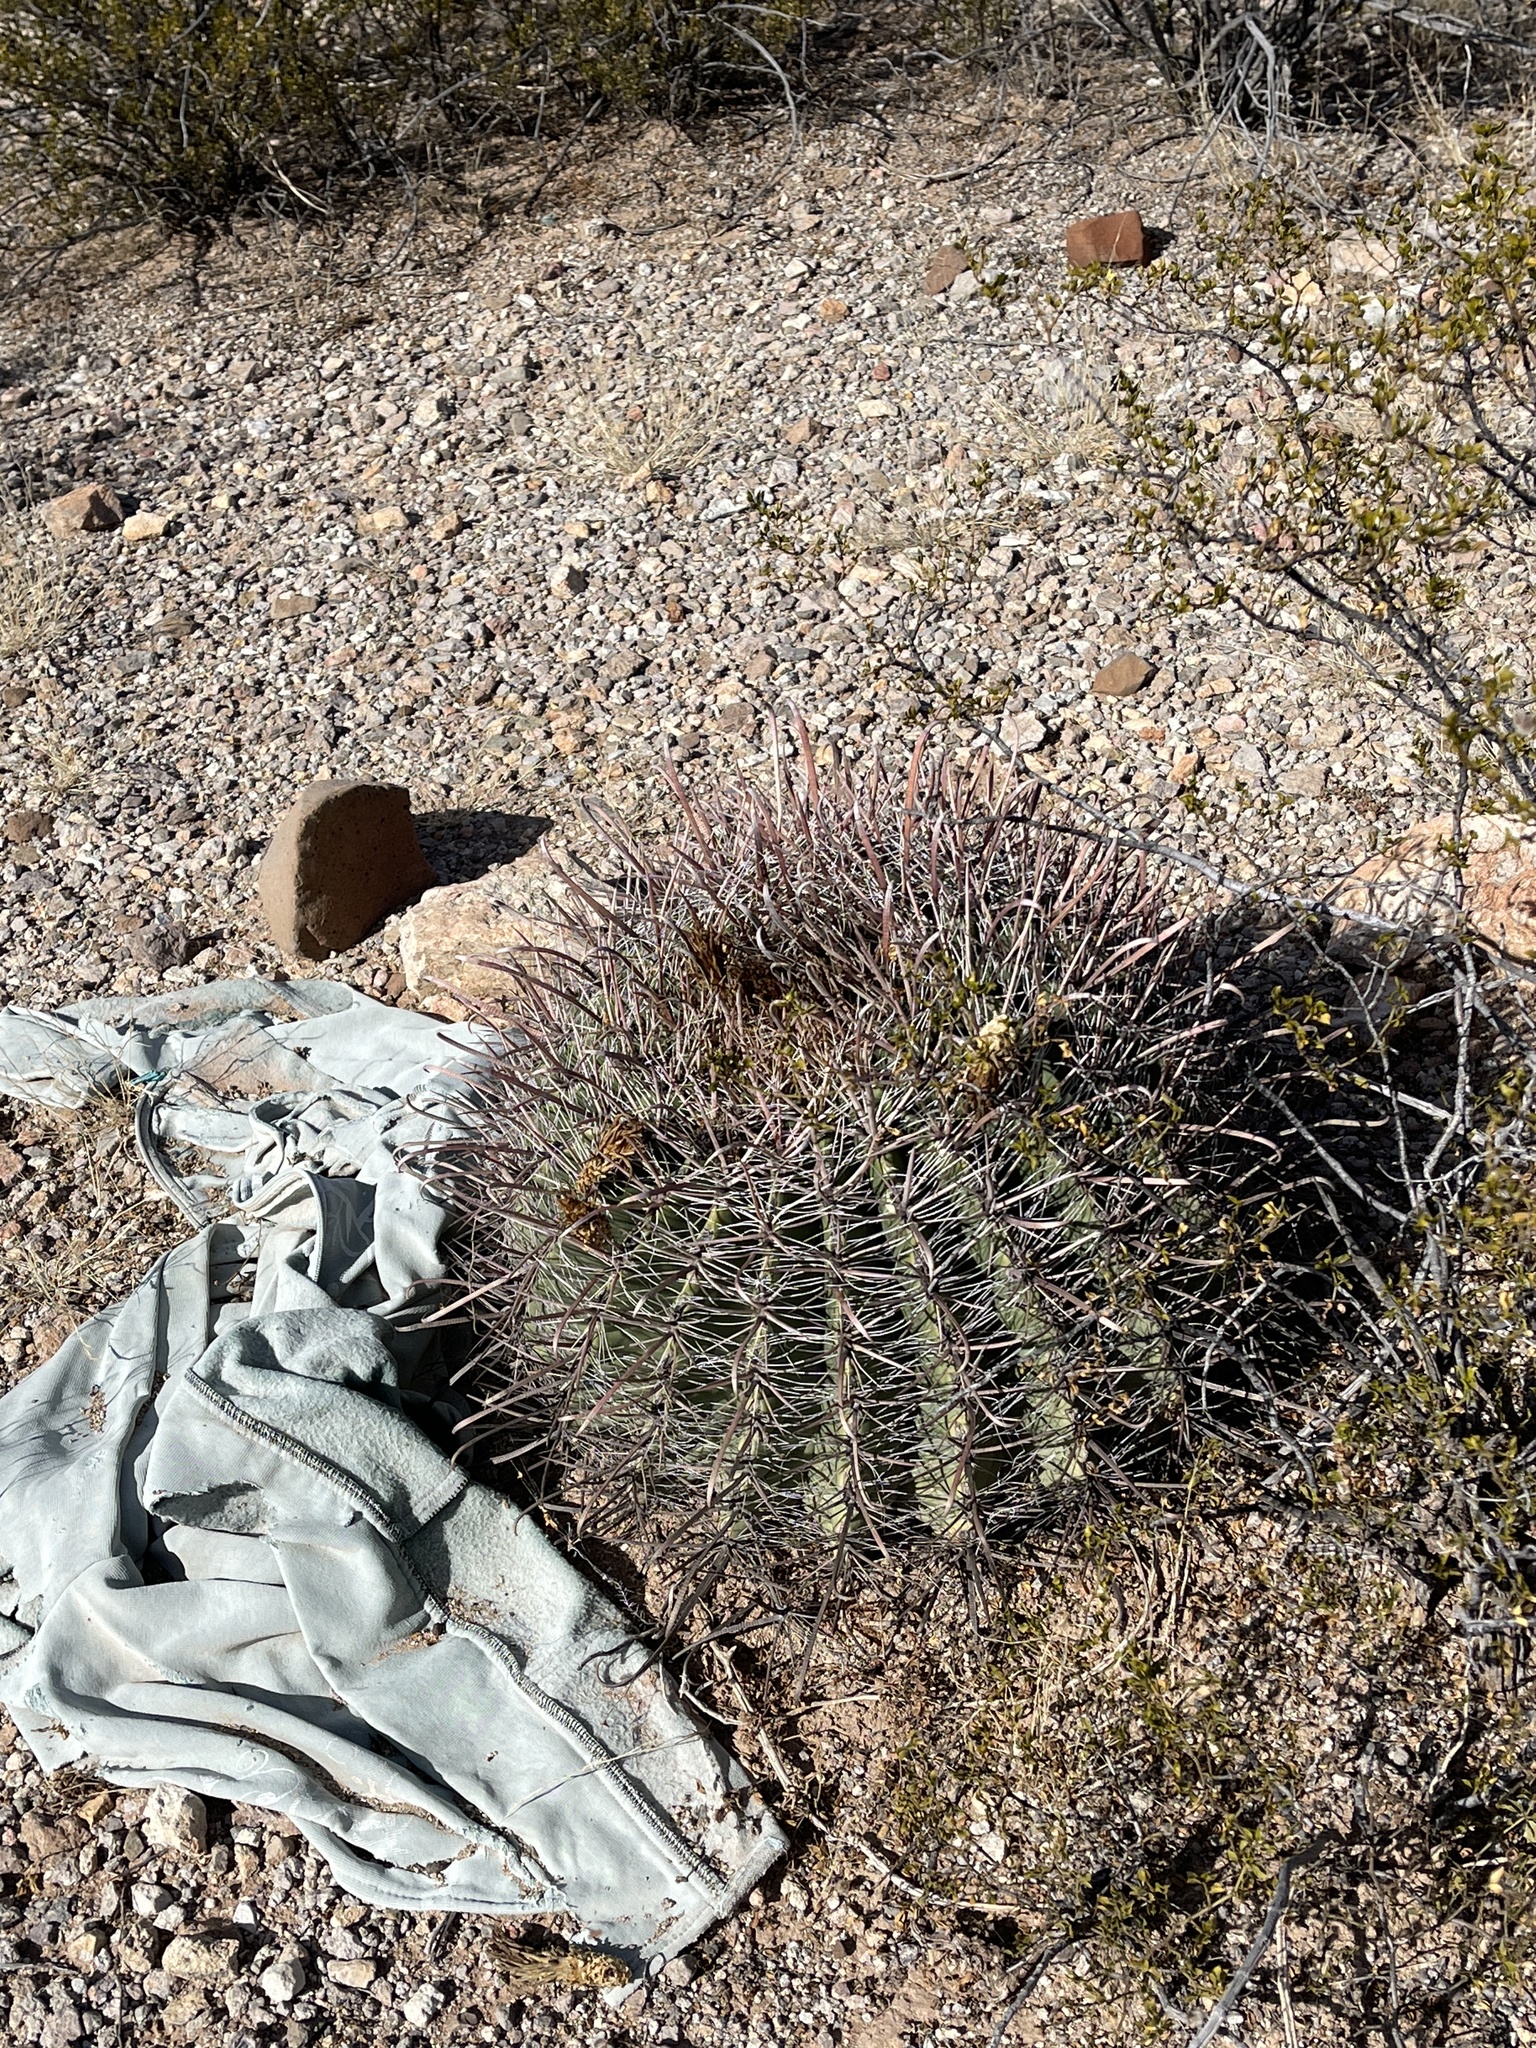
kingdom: Plantae
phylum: Tracheophyta
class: Magnoliopsida
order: Caryophyllales
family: Cactaceae
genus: Ferocactus
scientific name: Ferocactus wislizeni
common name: Candy barrel cactus
